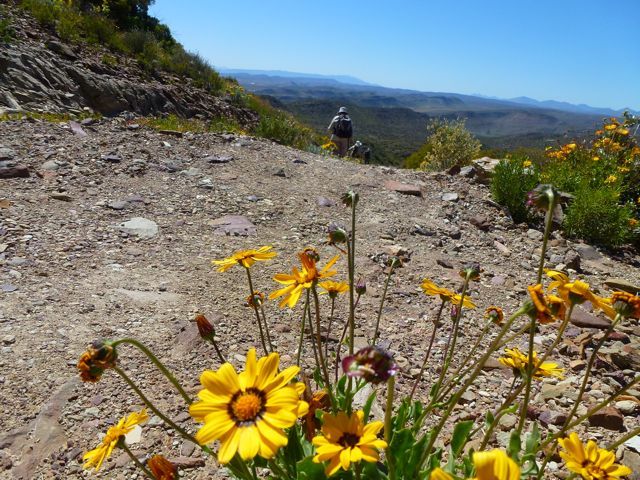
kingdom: Plantae
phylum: Tracheophyta
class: Magnoliopsida
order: Asterales
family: Asteraceae
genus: Osteospermum
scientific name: Osteospermum scariosum
